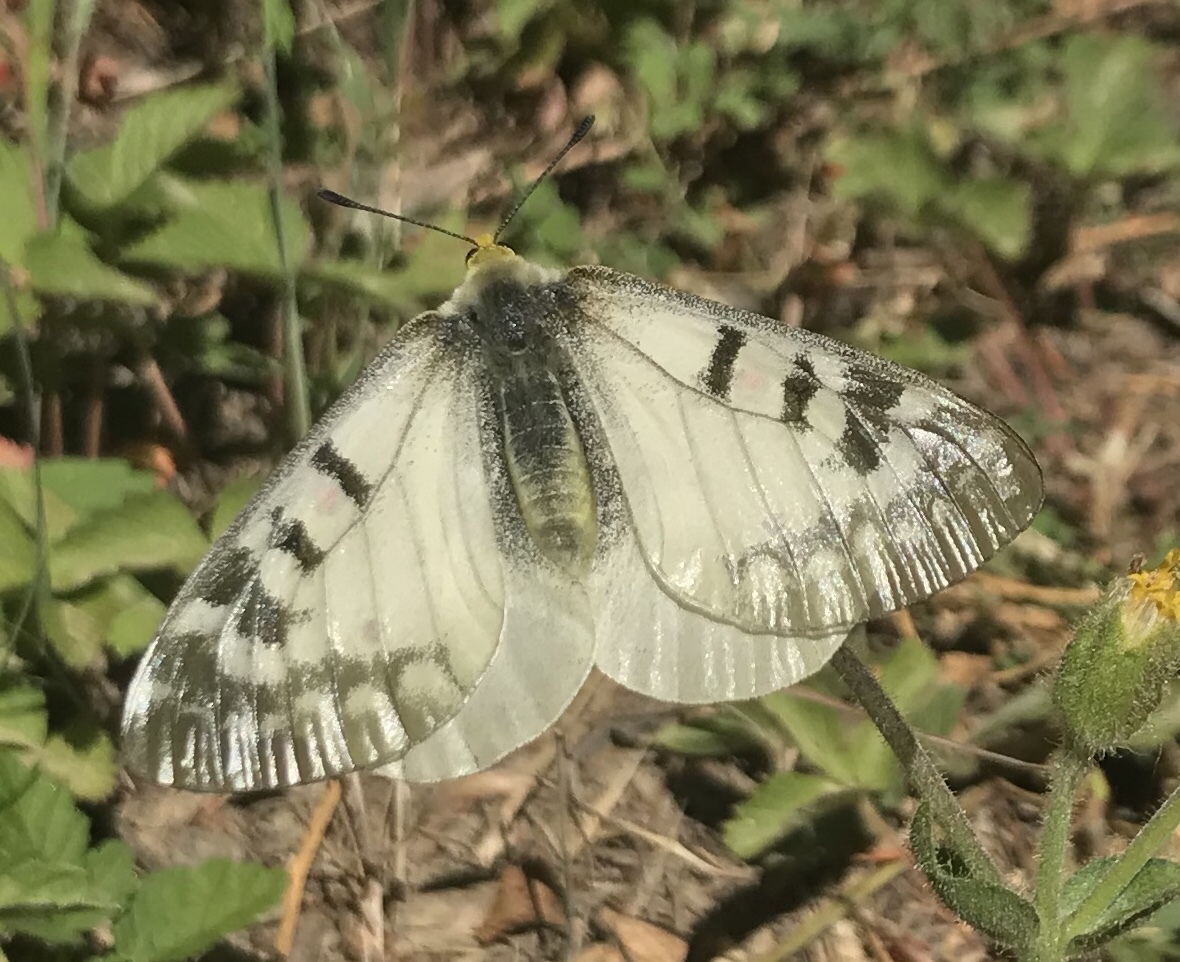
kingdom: Animalia
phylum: Arthropoda
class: Insecta
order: Lepidoptera
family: Papilionidae
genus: Parnassius
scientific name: Parnassius clodius
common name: American apollo
